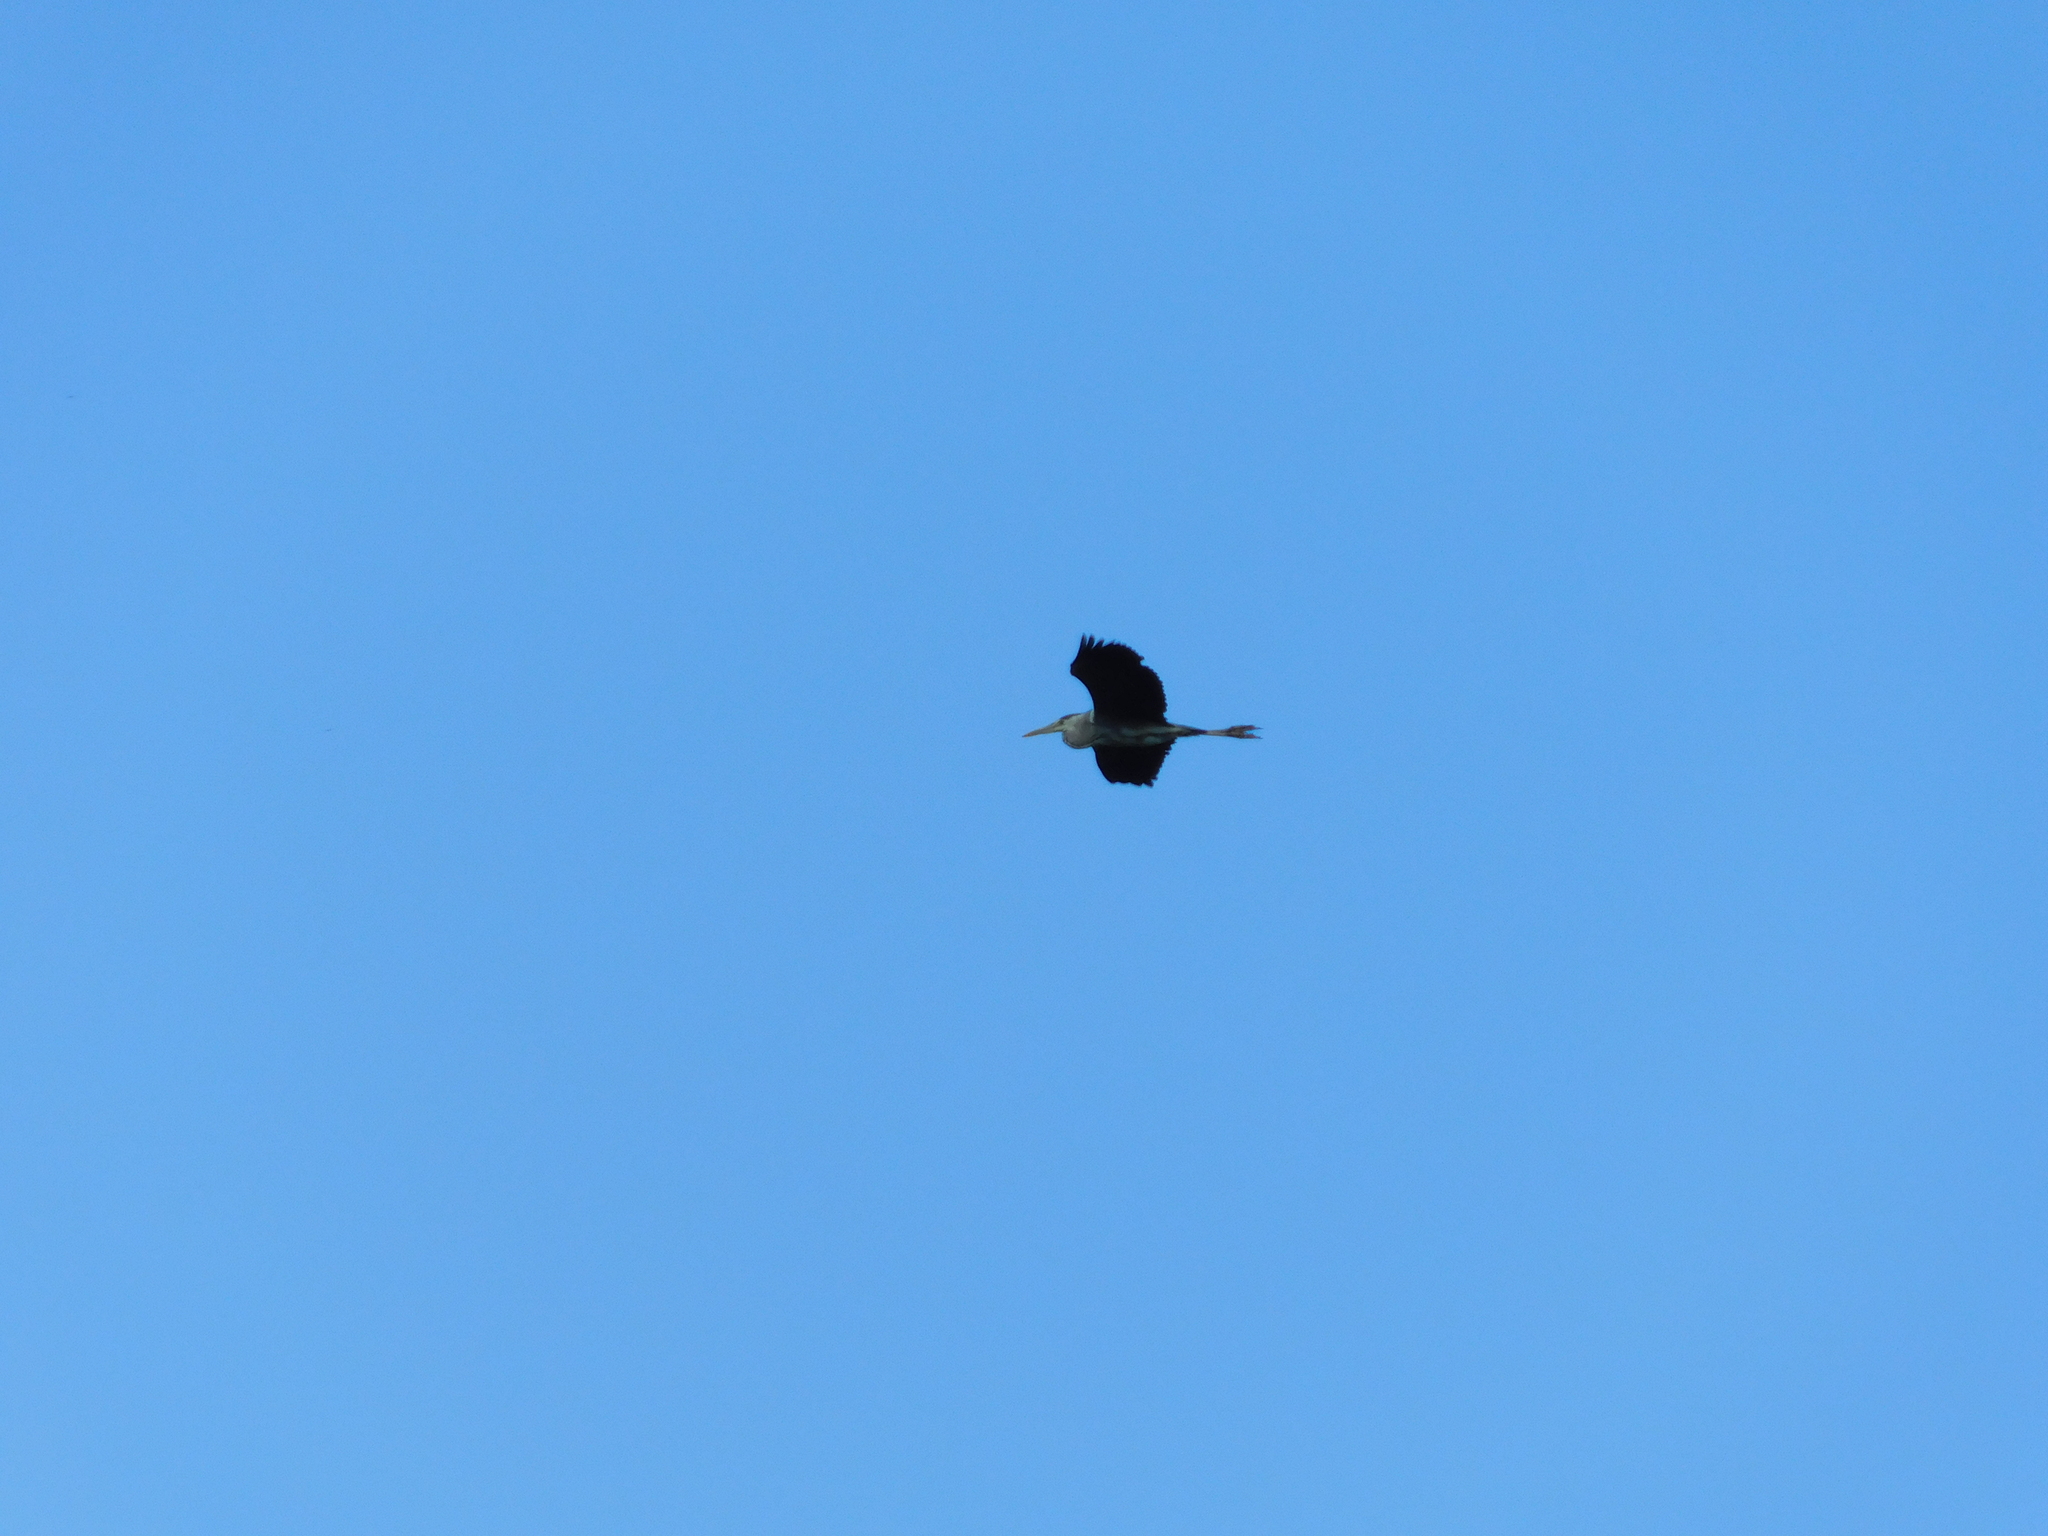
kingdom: Animalia
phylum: Chordata
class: Aves
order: Pelecaniformes
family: Ardeidae
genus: Ardea
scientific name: Ardea cinerea
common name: Grey heron
